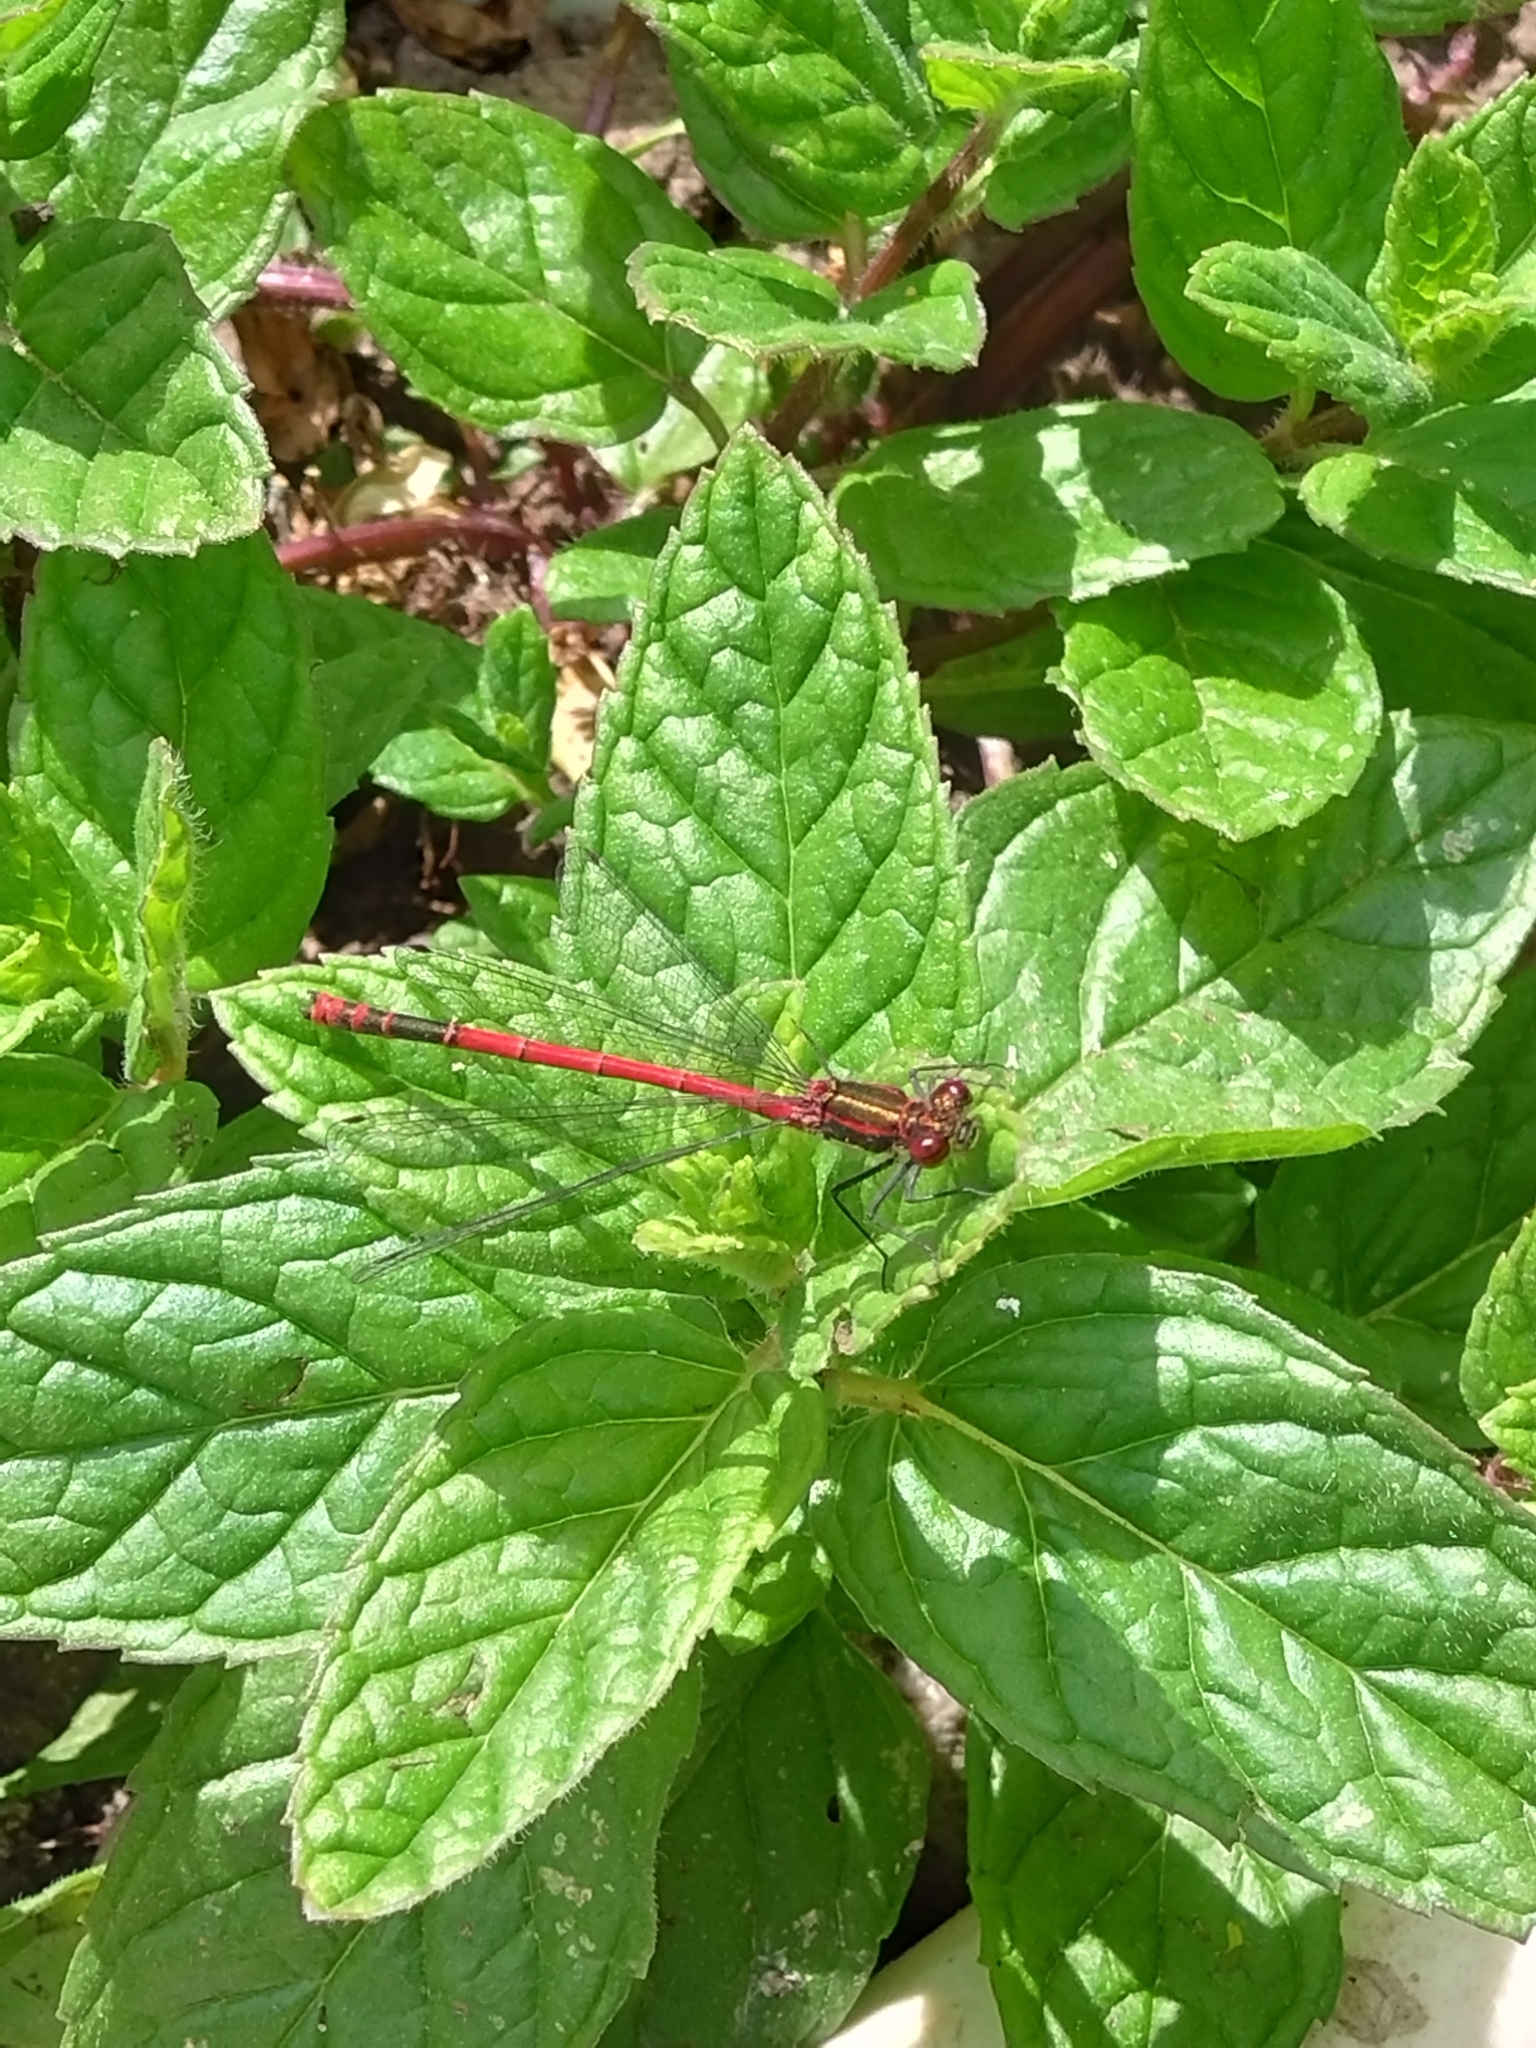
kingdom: Animalia
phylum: Arthropoda
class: Insecta
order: Odonata
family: Coenagrionidae
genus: Pyrrhosoma
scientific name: Pyrrhosoma nymphula
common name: Large red damsel
